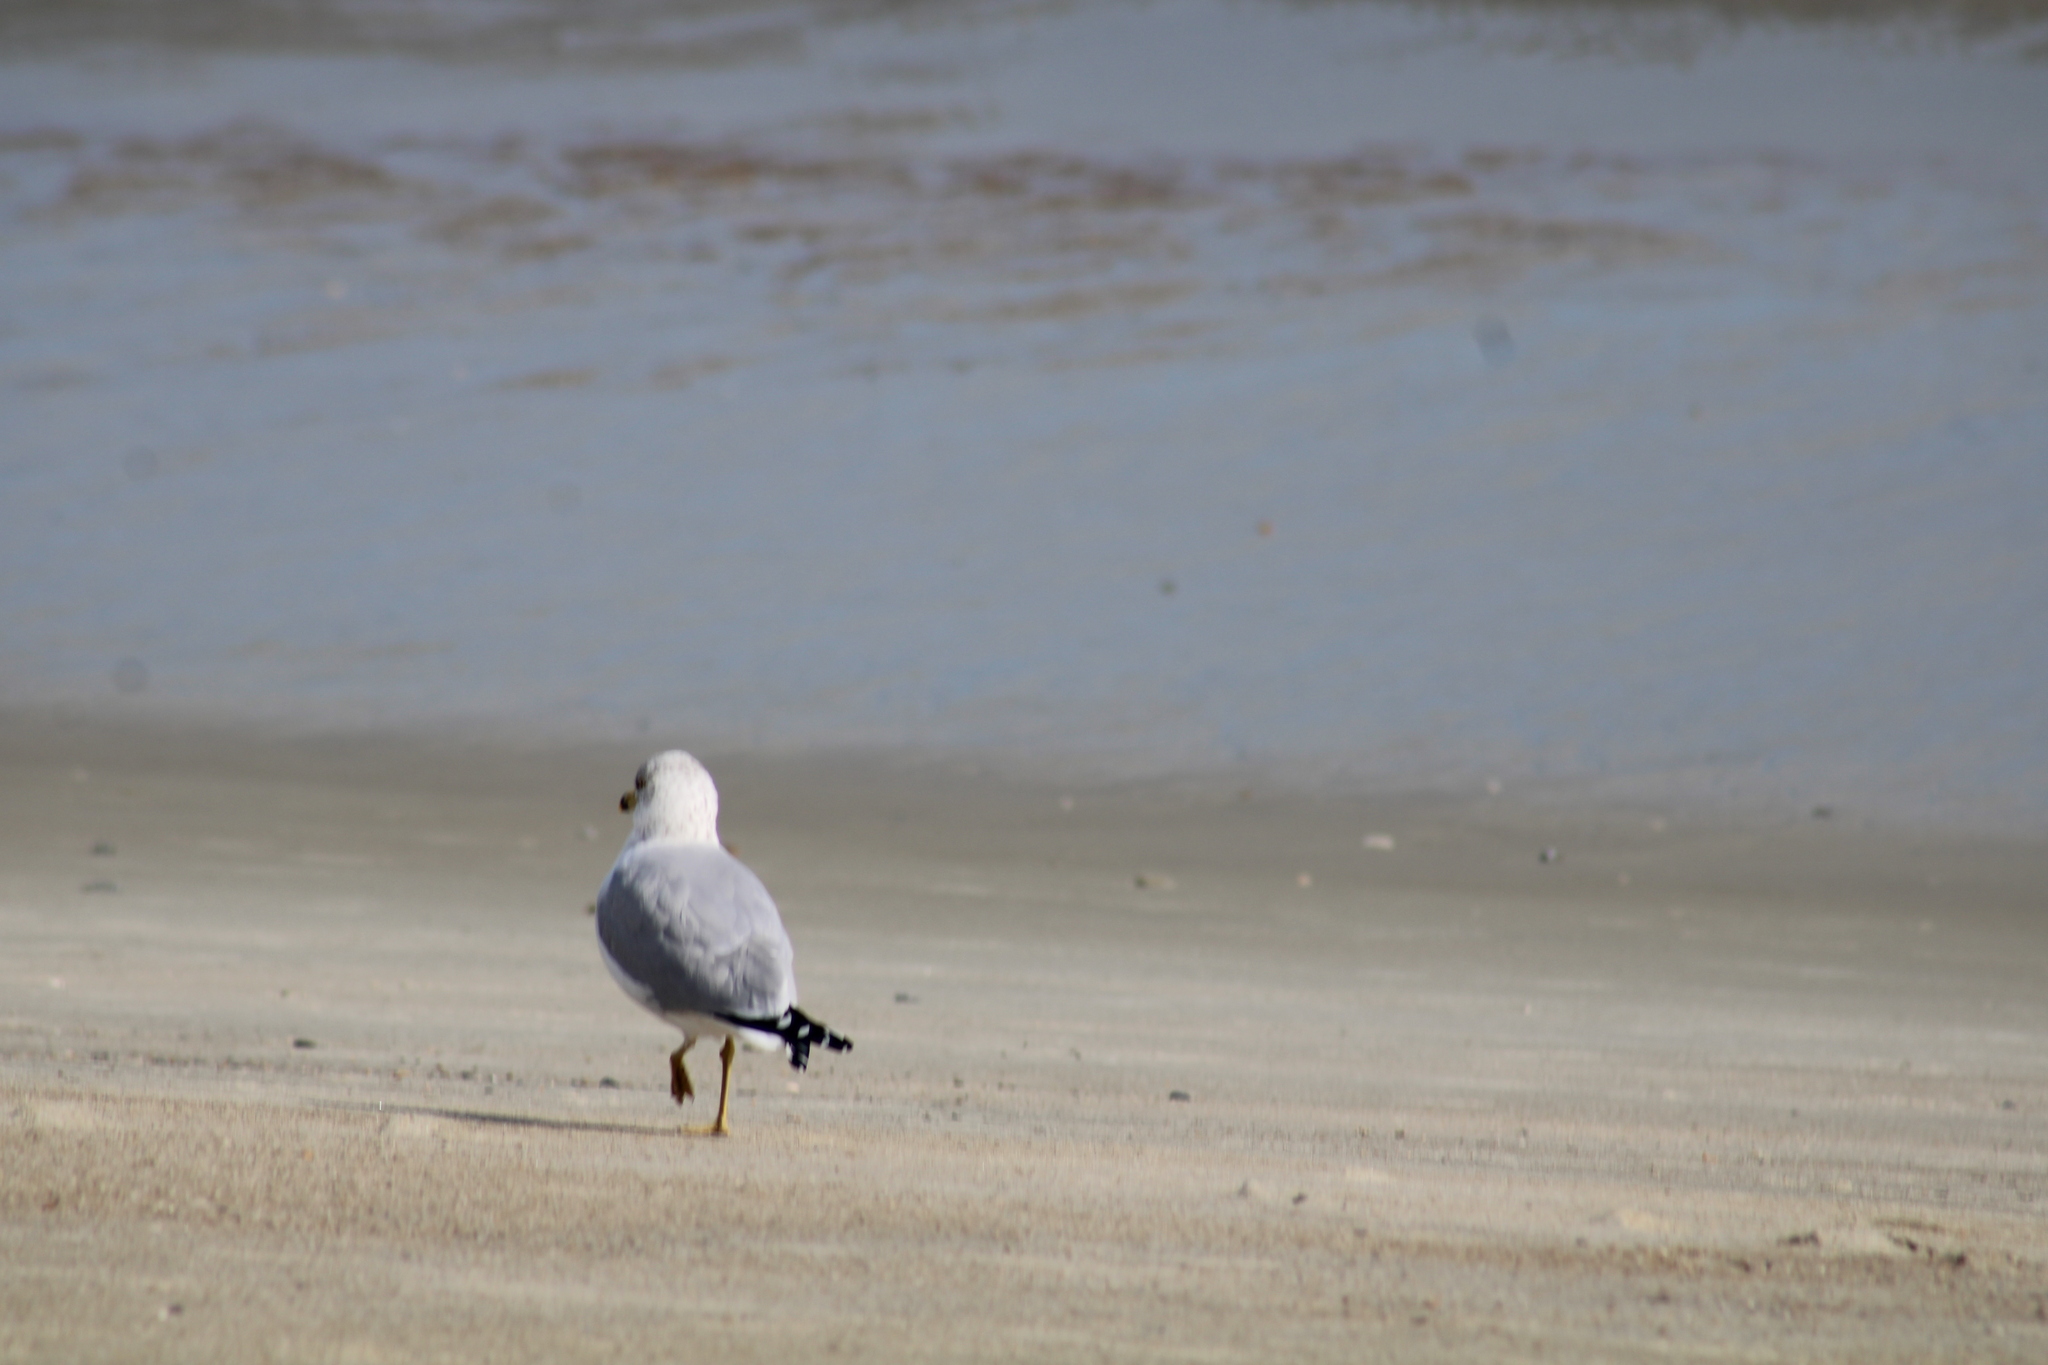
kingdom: Animalia
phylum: Chordata
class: Aves
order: Charadriiformes
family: Laridae
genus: Larus
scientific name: Larus delawarensis
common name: Ring-billed gull
